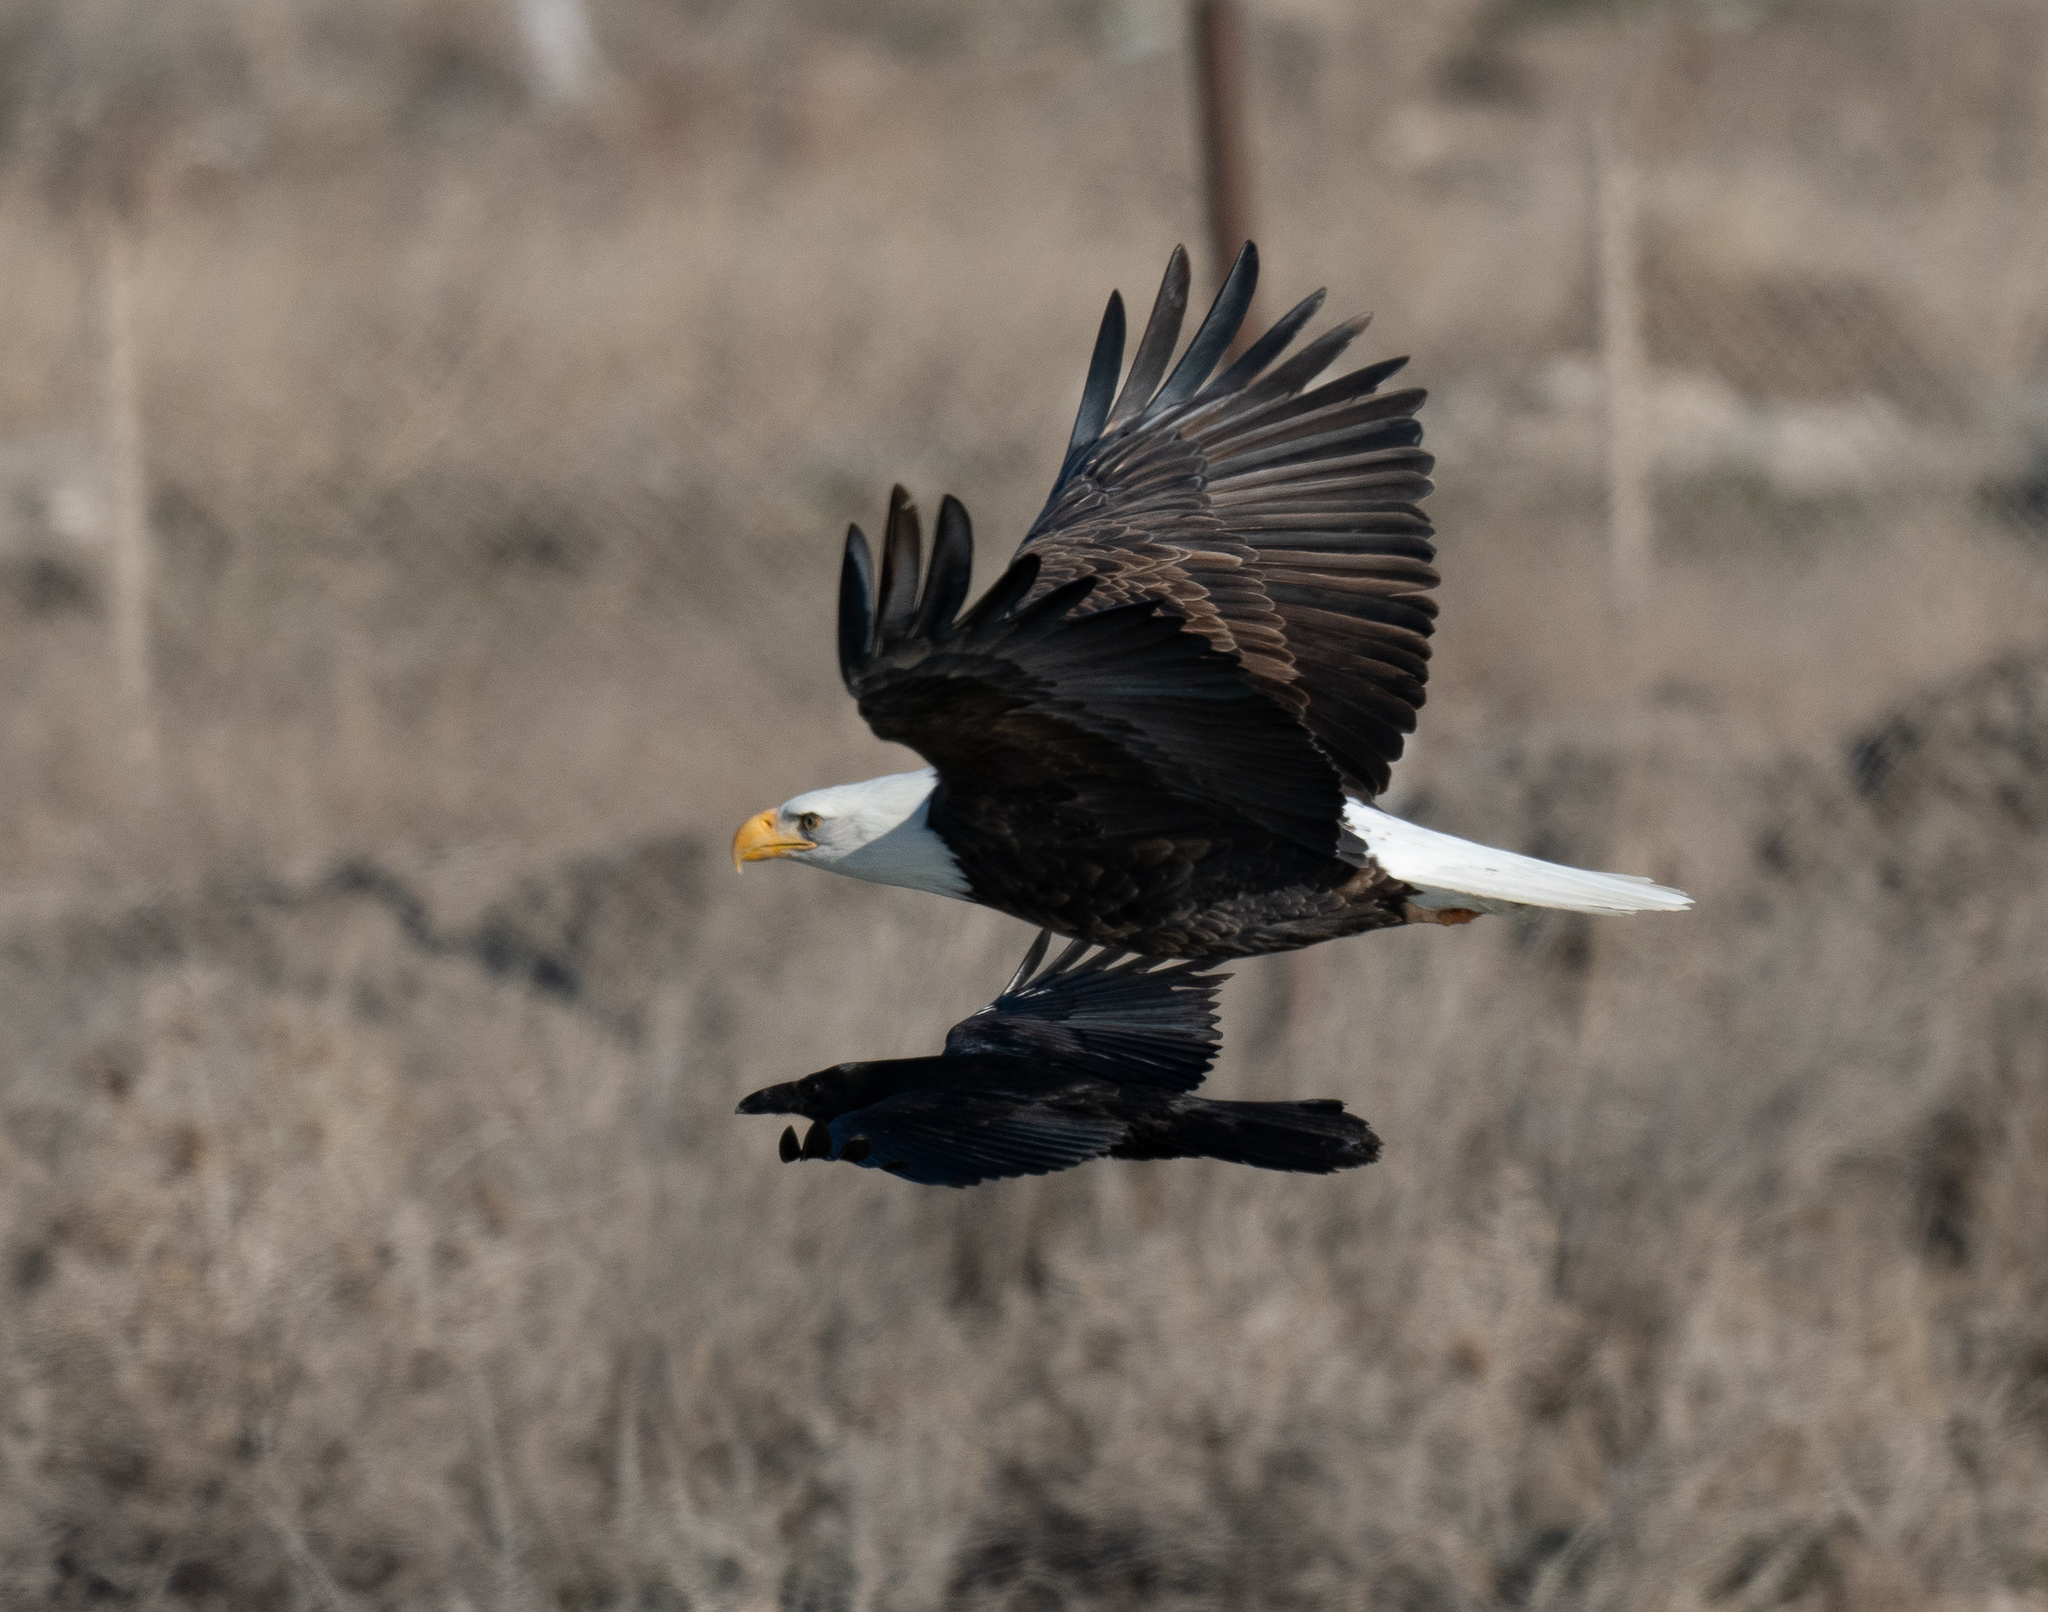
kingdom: Animalia
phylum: Chordata
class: Aves
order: Passeriformes
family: Corvidae
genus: Corvus
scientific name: Corvus corax
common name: Common raven
